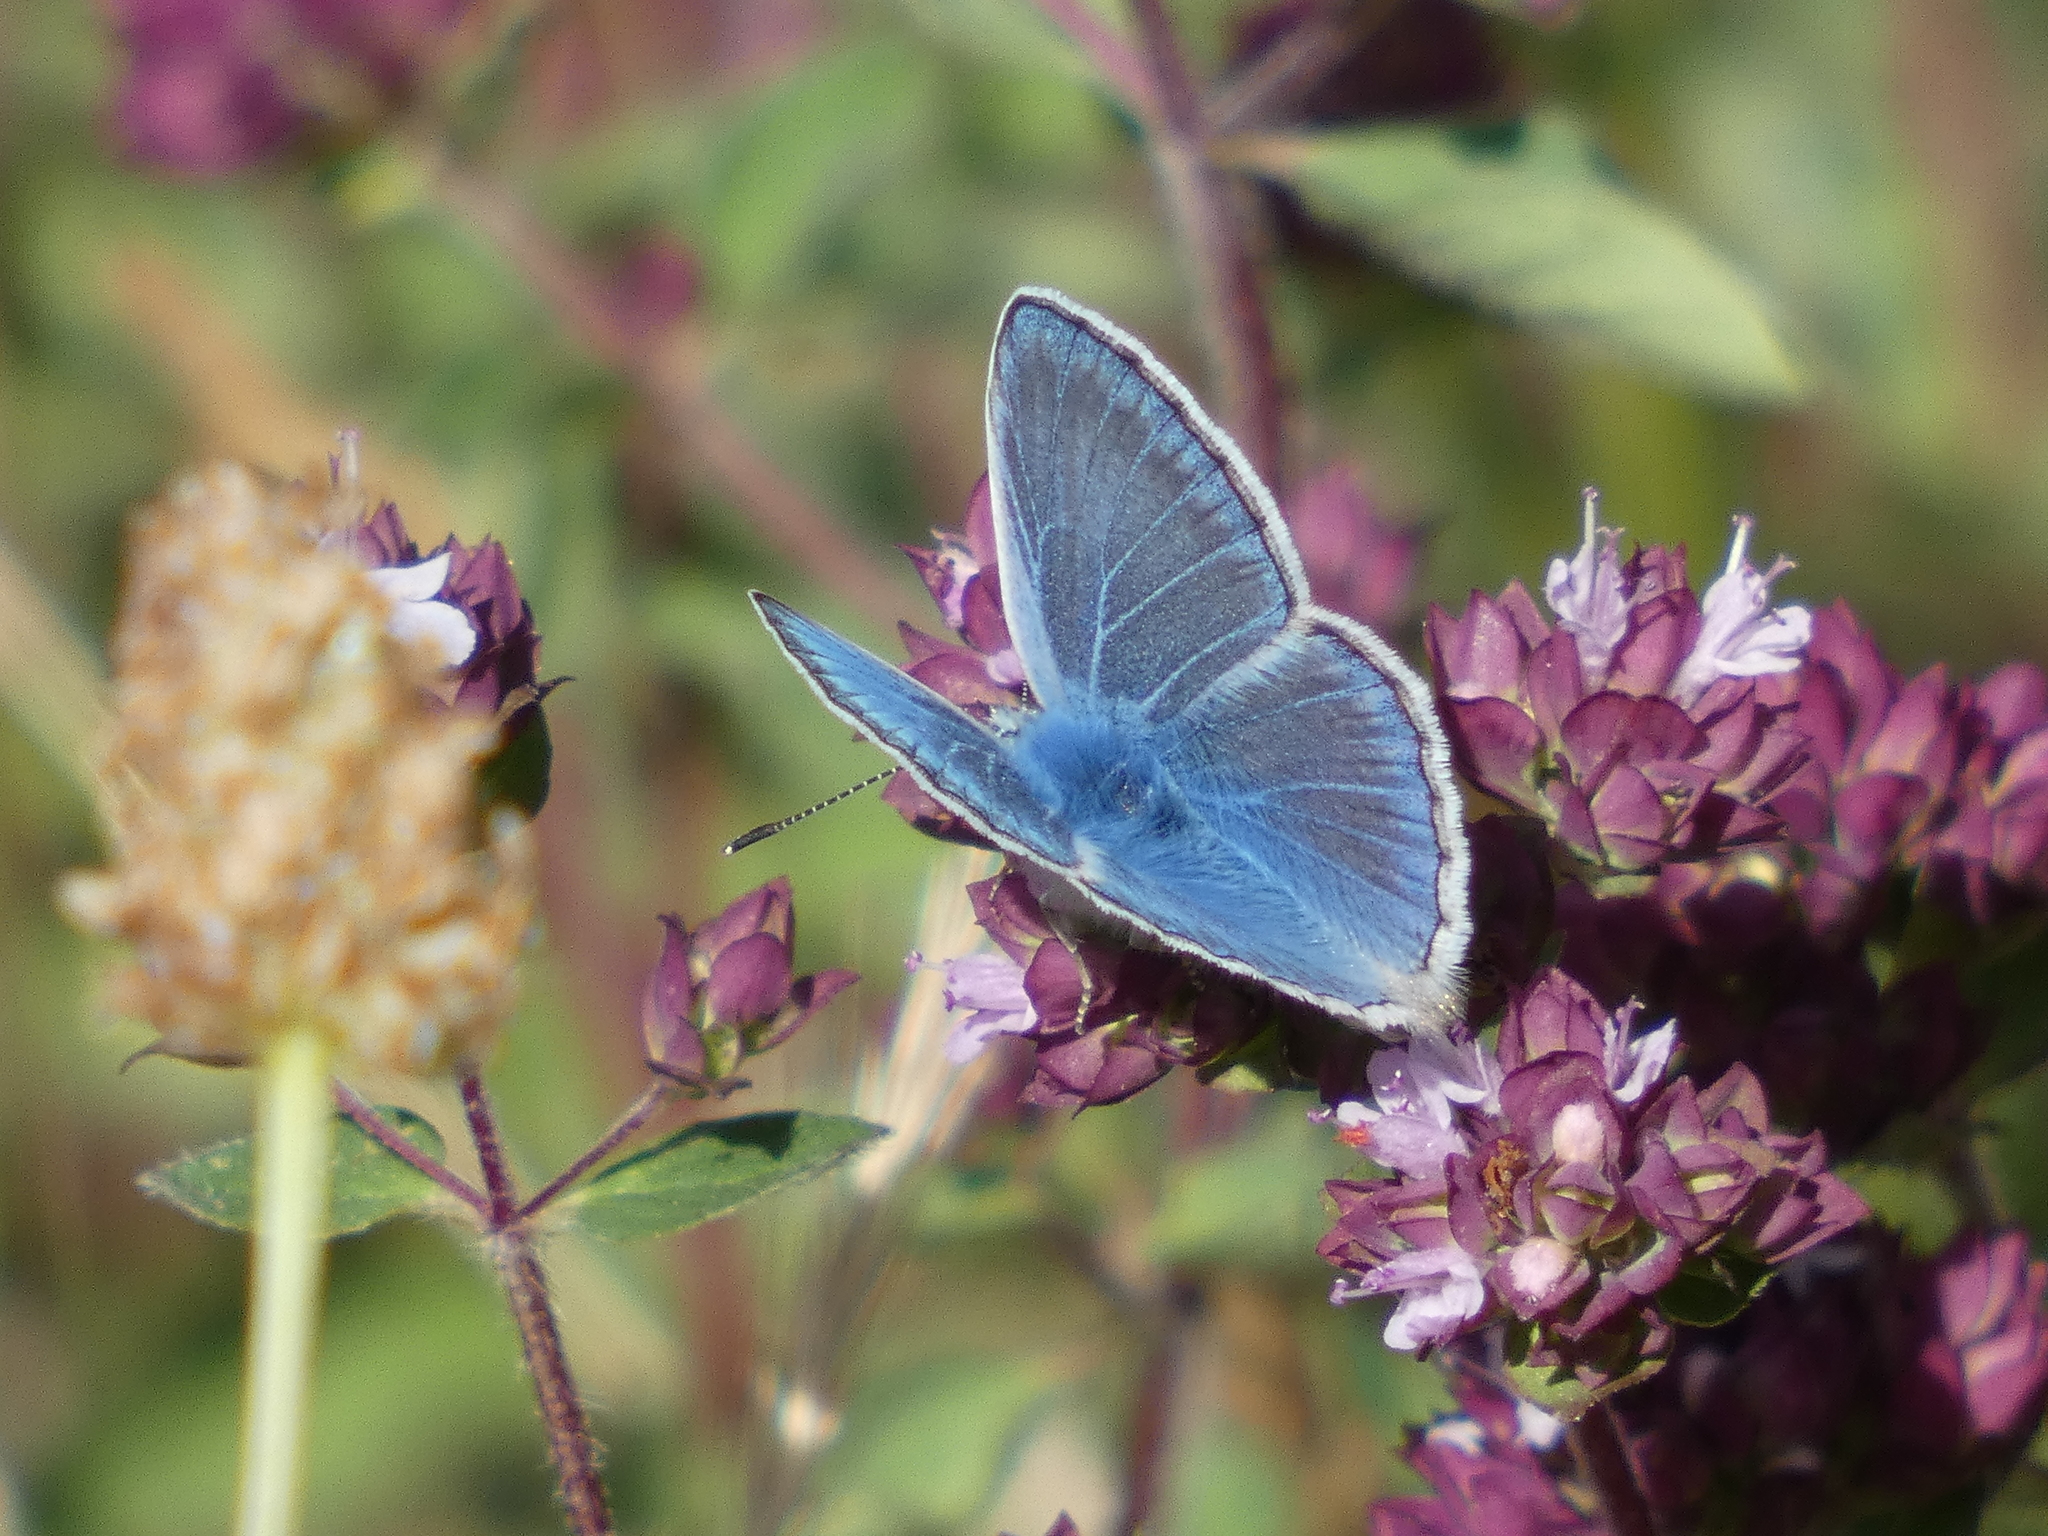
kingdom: Animalia
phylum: Arthropoda
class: Insecta
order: Lepidoptera
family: Lycaenidae
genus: Polyommatus
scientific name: Polyommatus icarus
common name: Common blue
